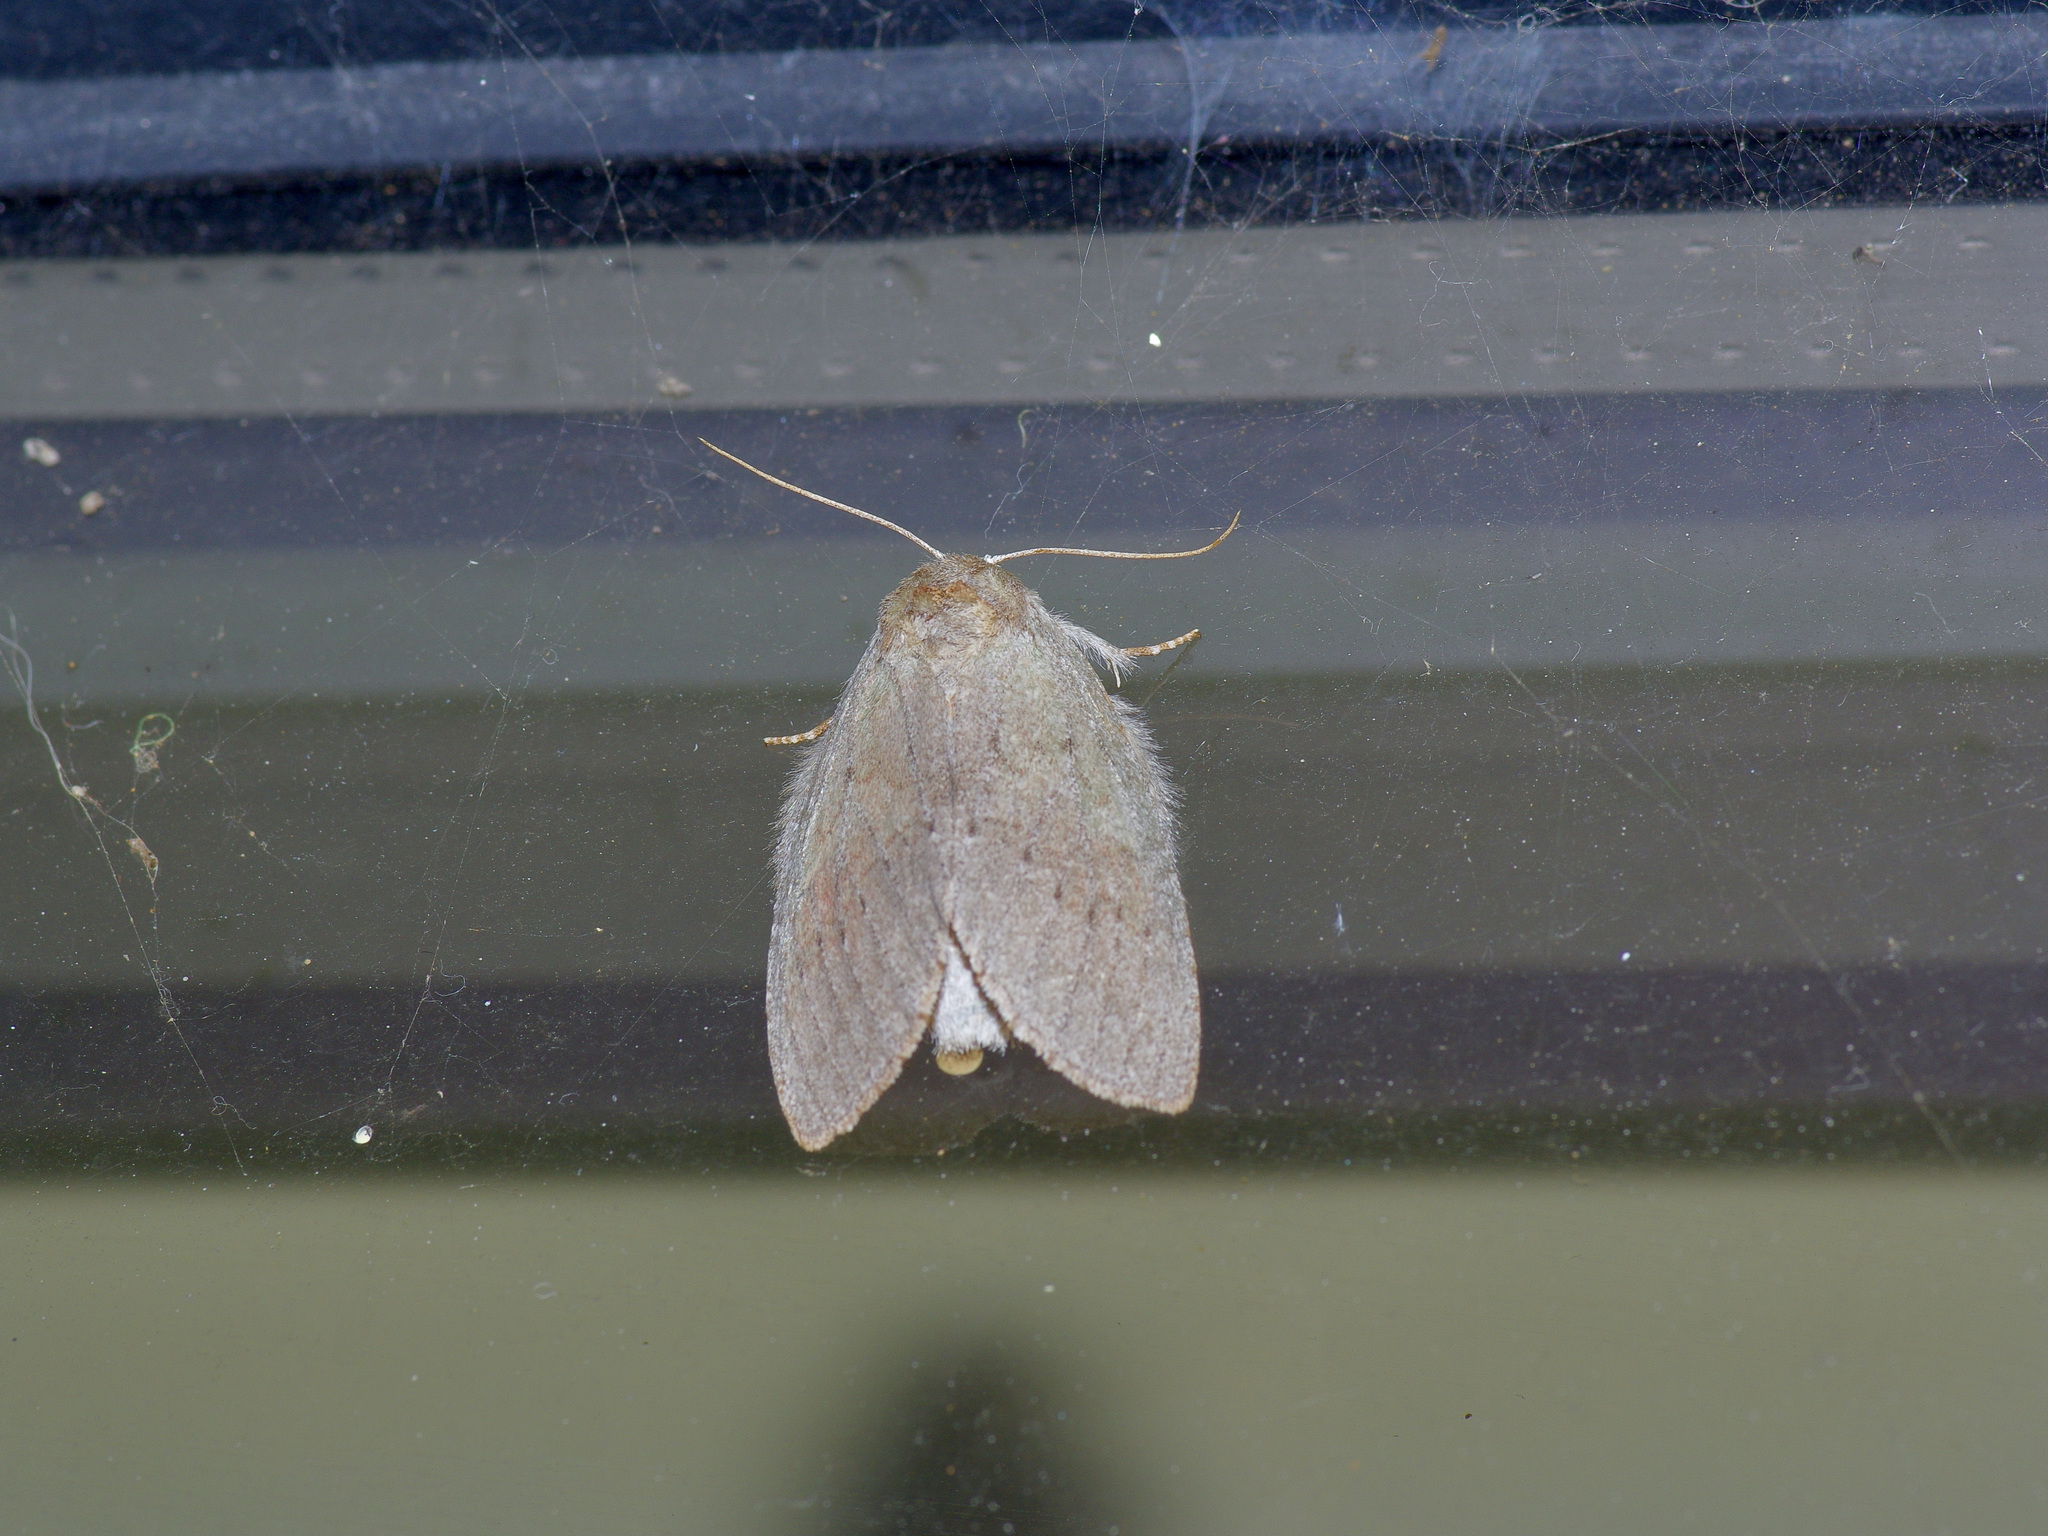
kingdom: Animalia
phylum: Arthropoda
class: Insecta
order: Lepidoptera
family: Notodontidae
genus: Misogada
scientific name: Misogada unicolor
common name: Drab prominent
